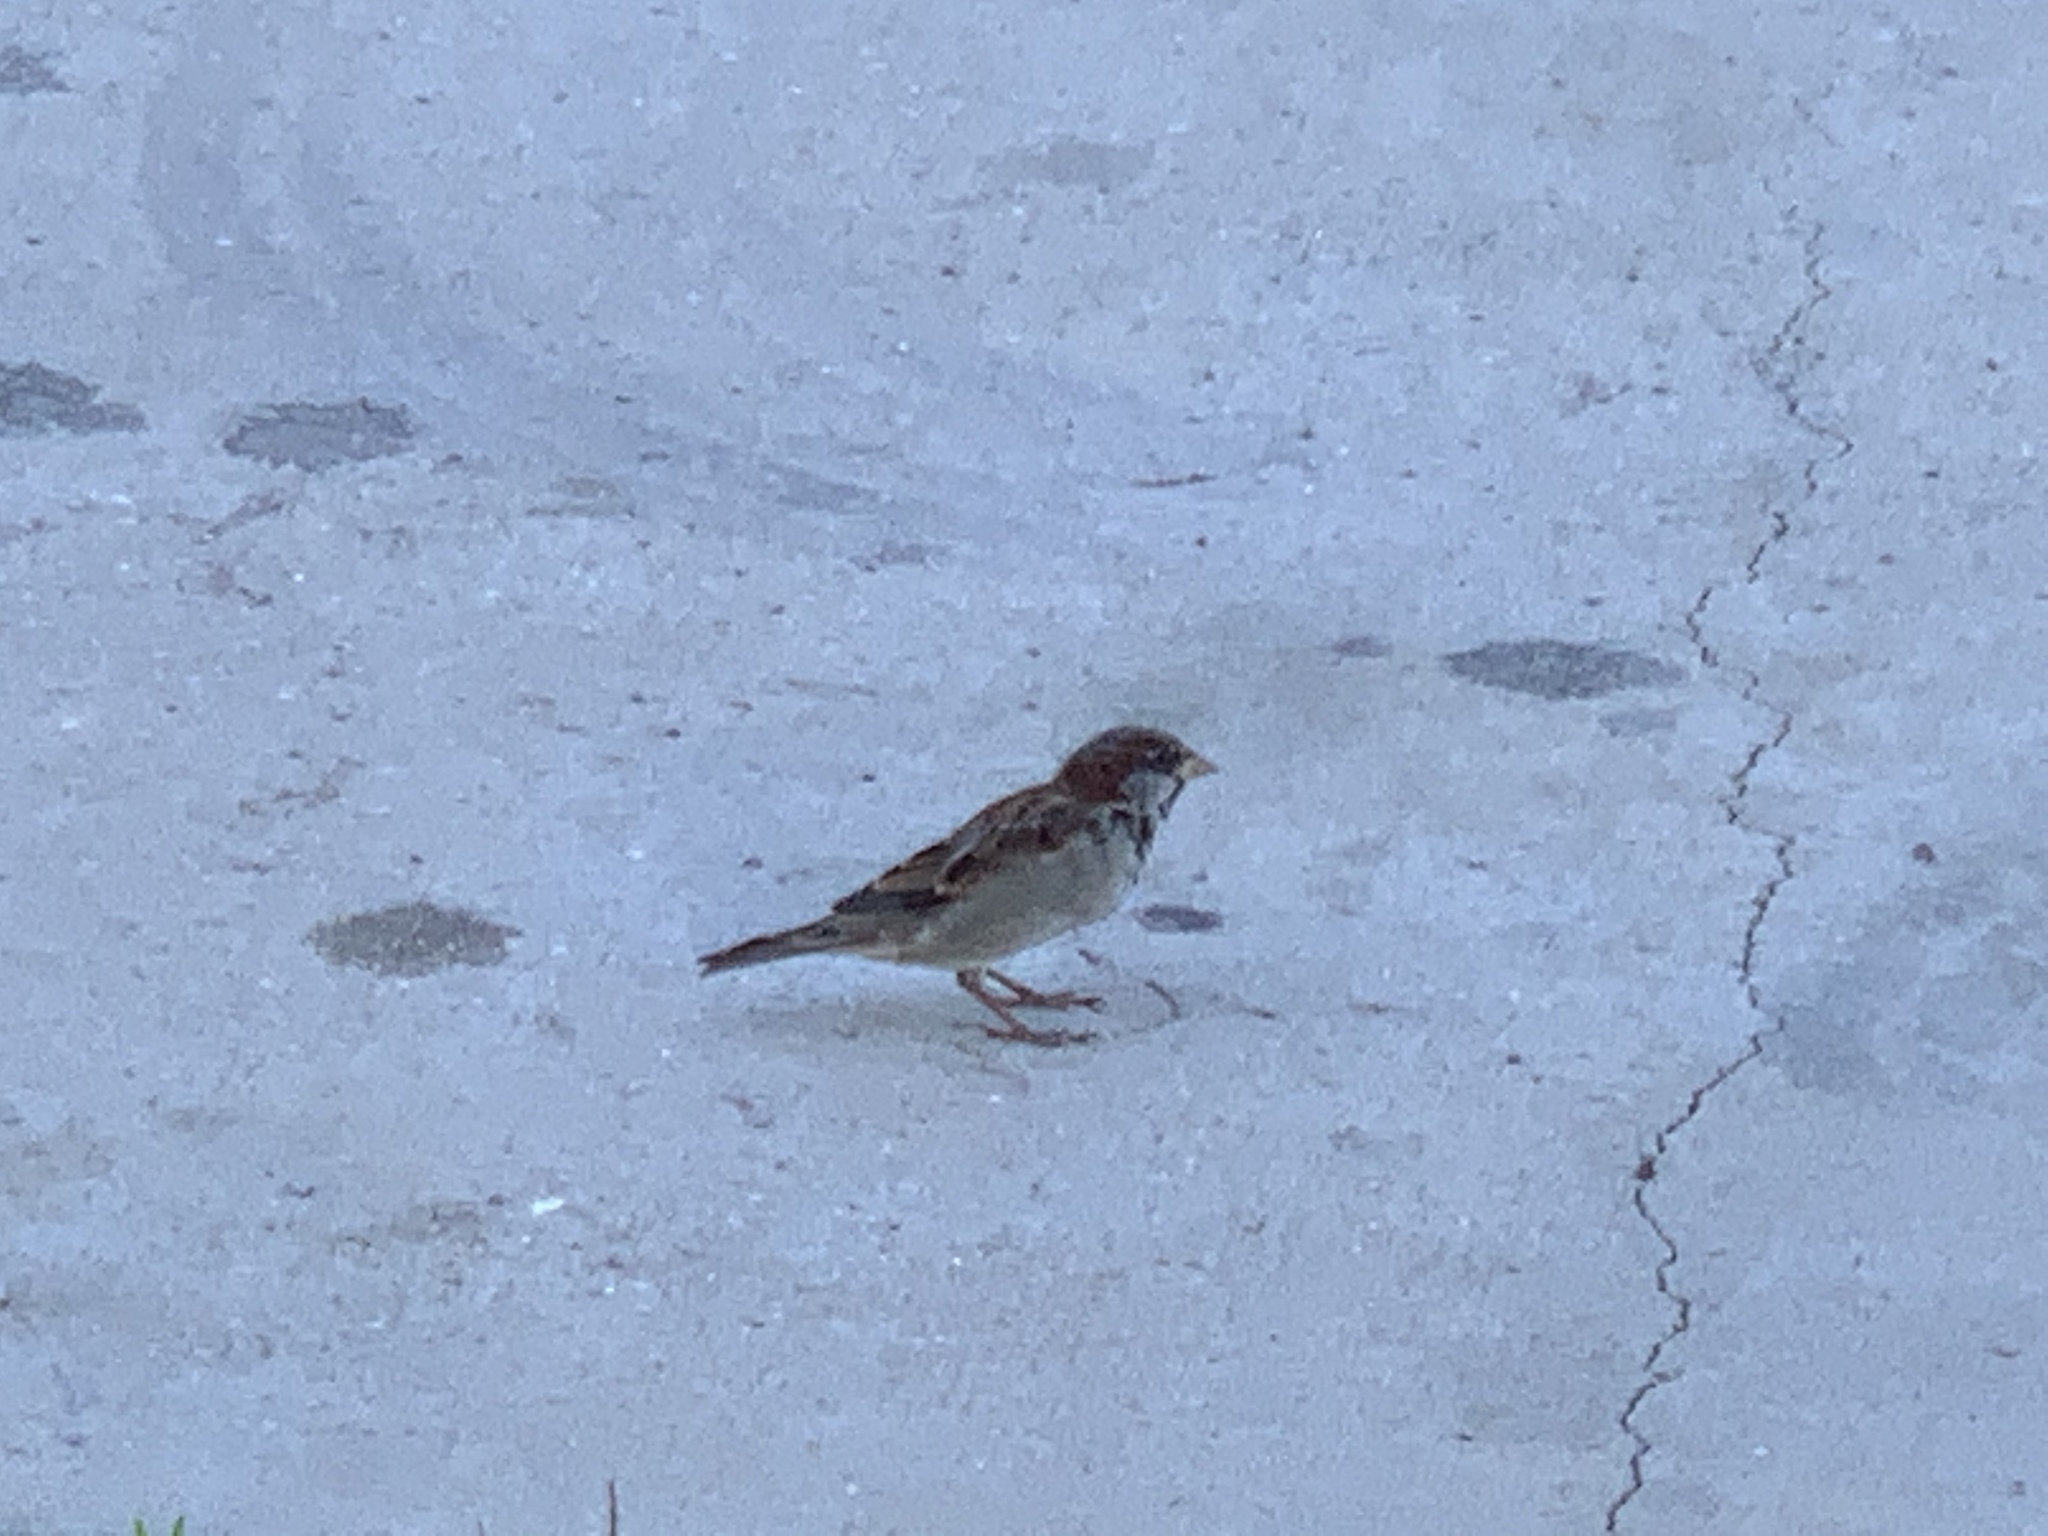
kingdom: Animalia
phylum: Chordata
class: Aves
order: Passeriformes
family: Passeridae
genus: Passer
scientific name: Passer domesticus
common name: House sparrow
